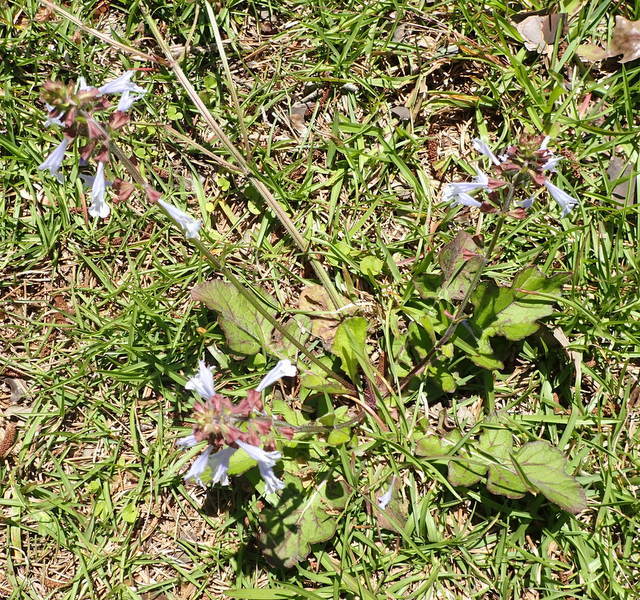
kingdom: Plantae
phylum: Tracheophyta
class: Magnoliopsida
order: Lamiales
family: Lamiaceae
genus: Salvia
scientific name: Salvia lyrata
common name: Cancerweed
